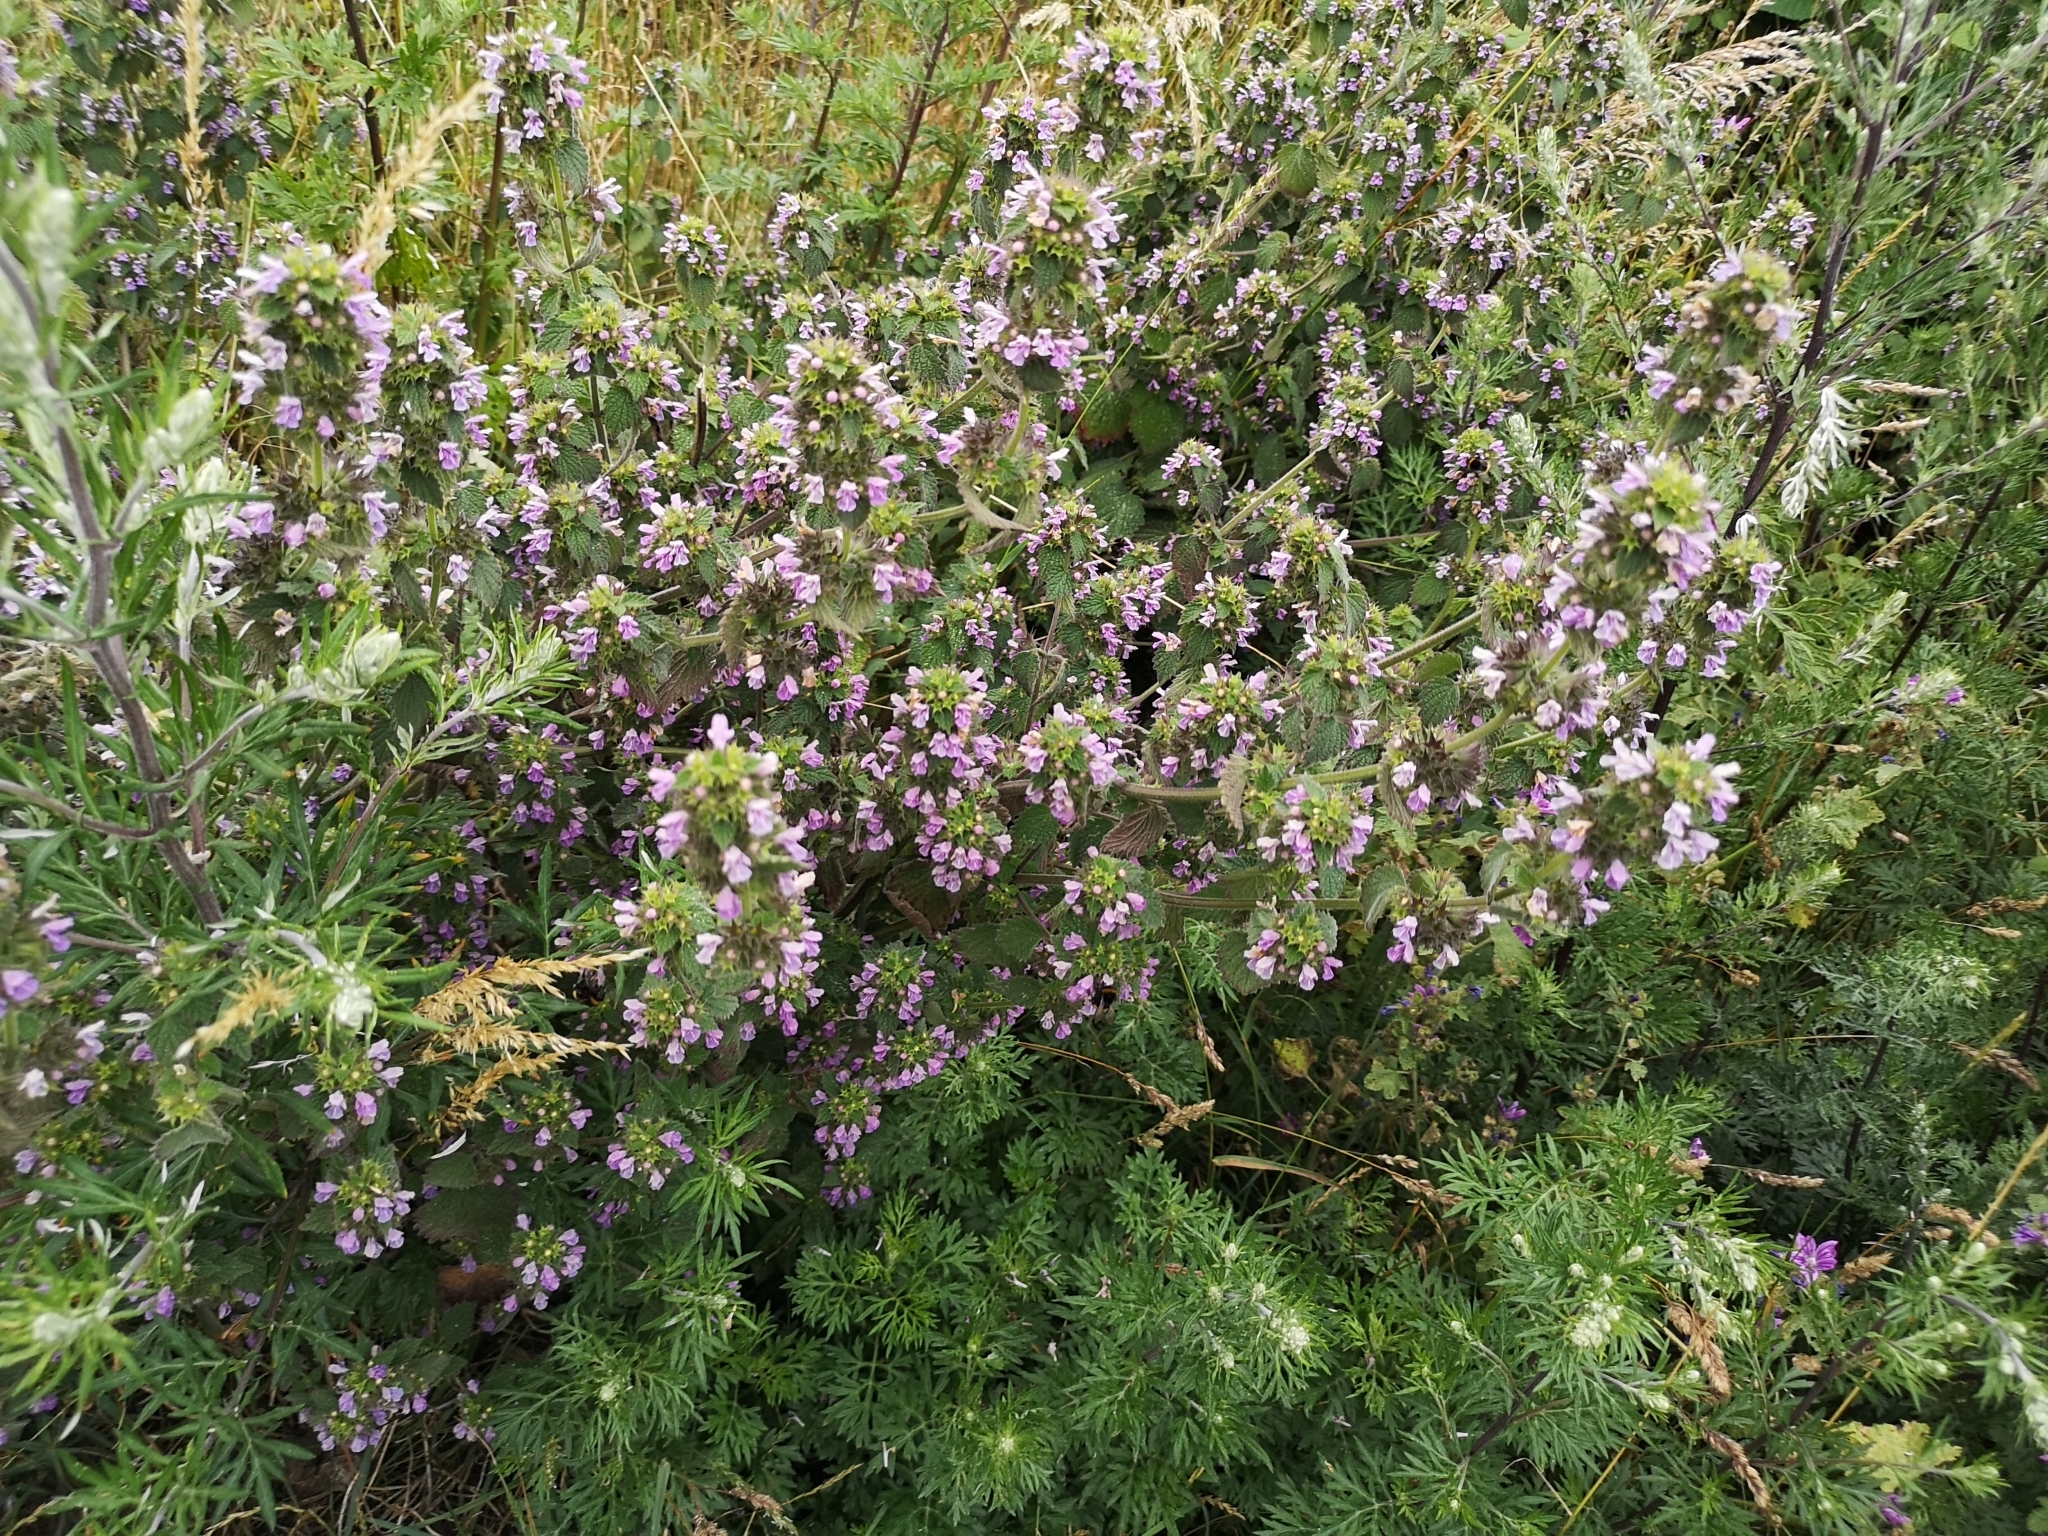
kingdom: Plantae
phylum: Tracheophyta
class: Magnoliopsida
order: Lamiales
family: Lamiaceae
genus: Ballota
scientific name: Ballota nigra
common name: Black horehound
